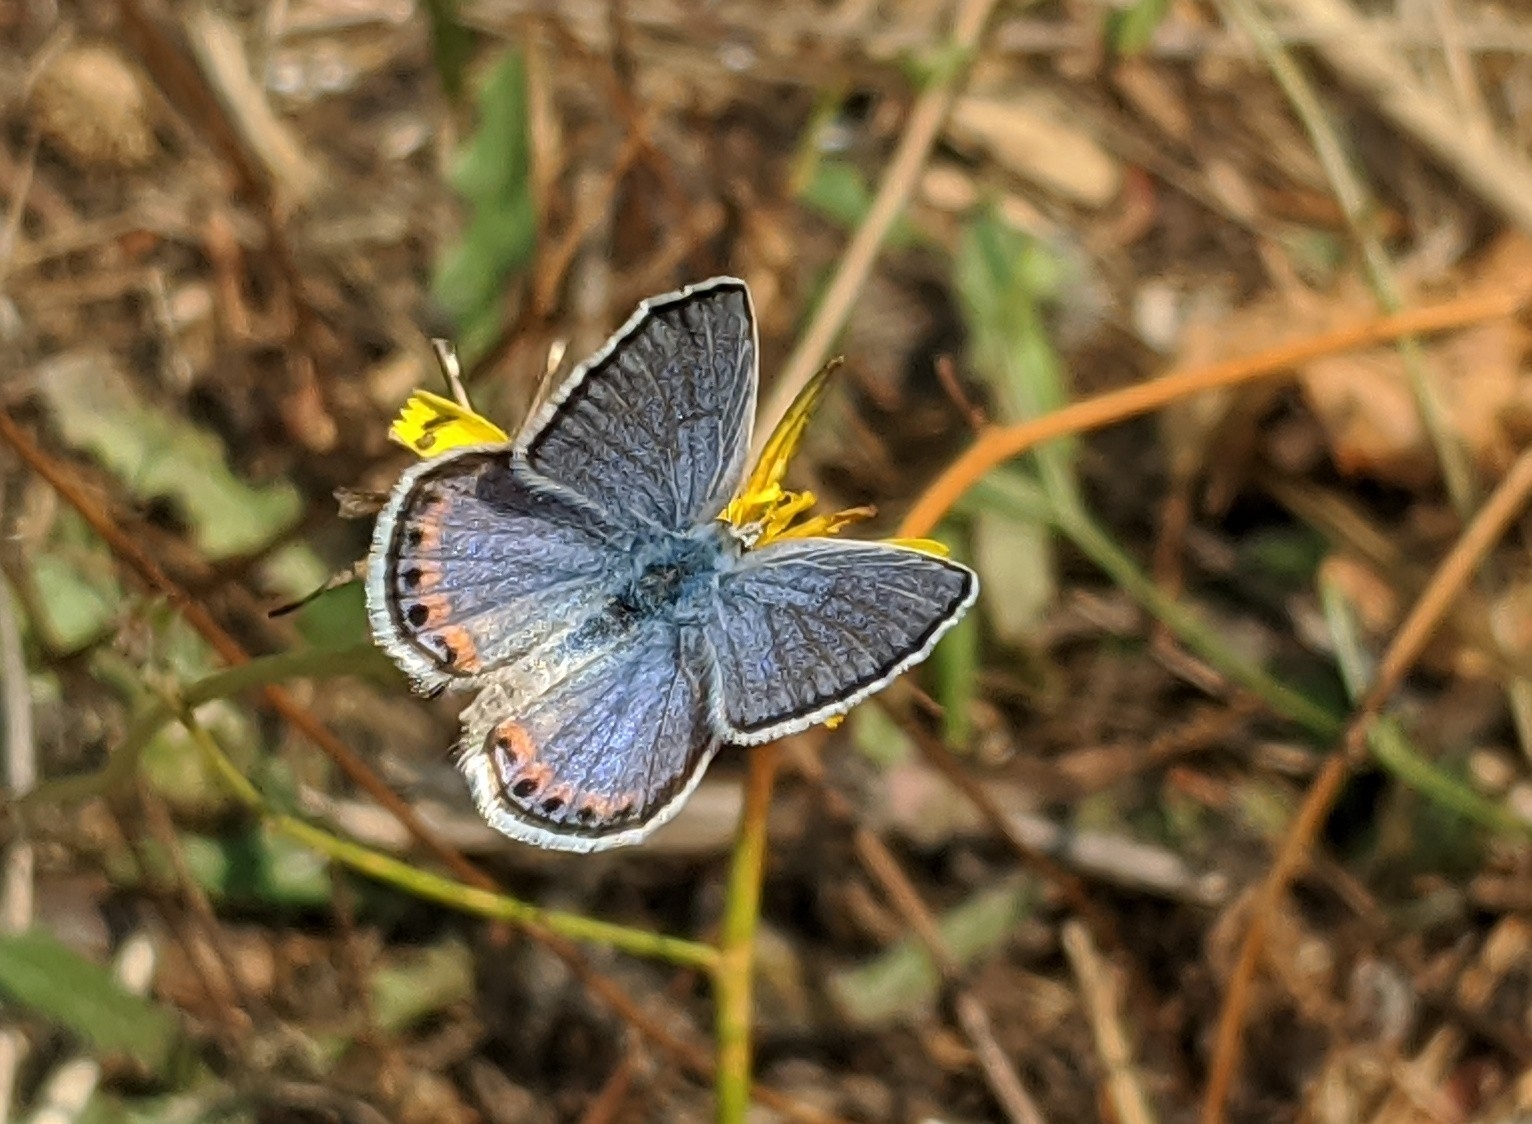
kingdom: Animalia
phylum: Arthropoda
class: Insecta
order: Lepidoptera
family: Lycaenidae
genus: Icaricia
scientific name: Icaricia acmon
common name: Acmon blue
